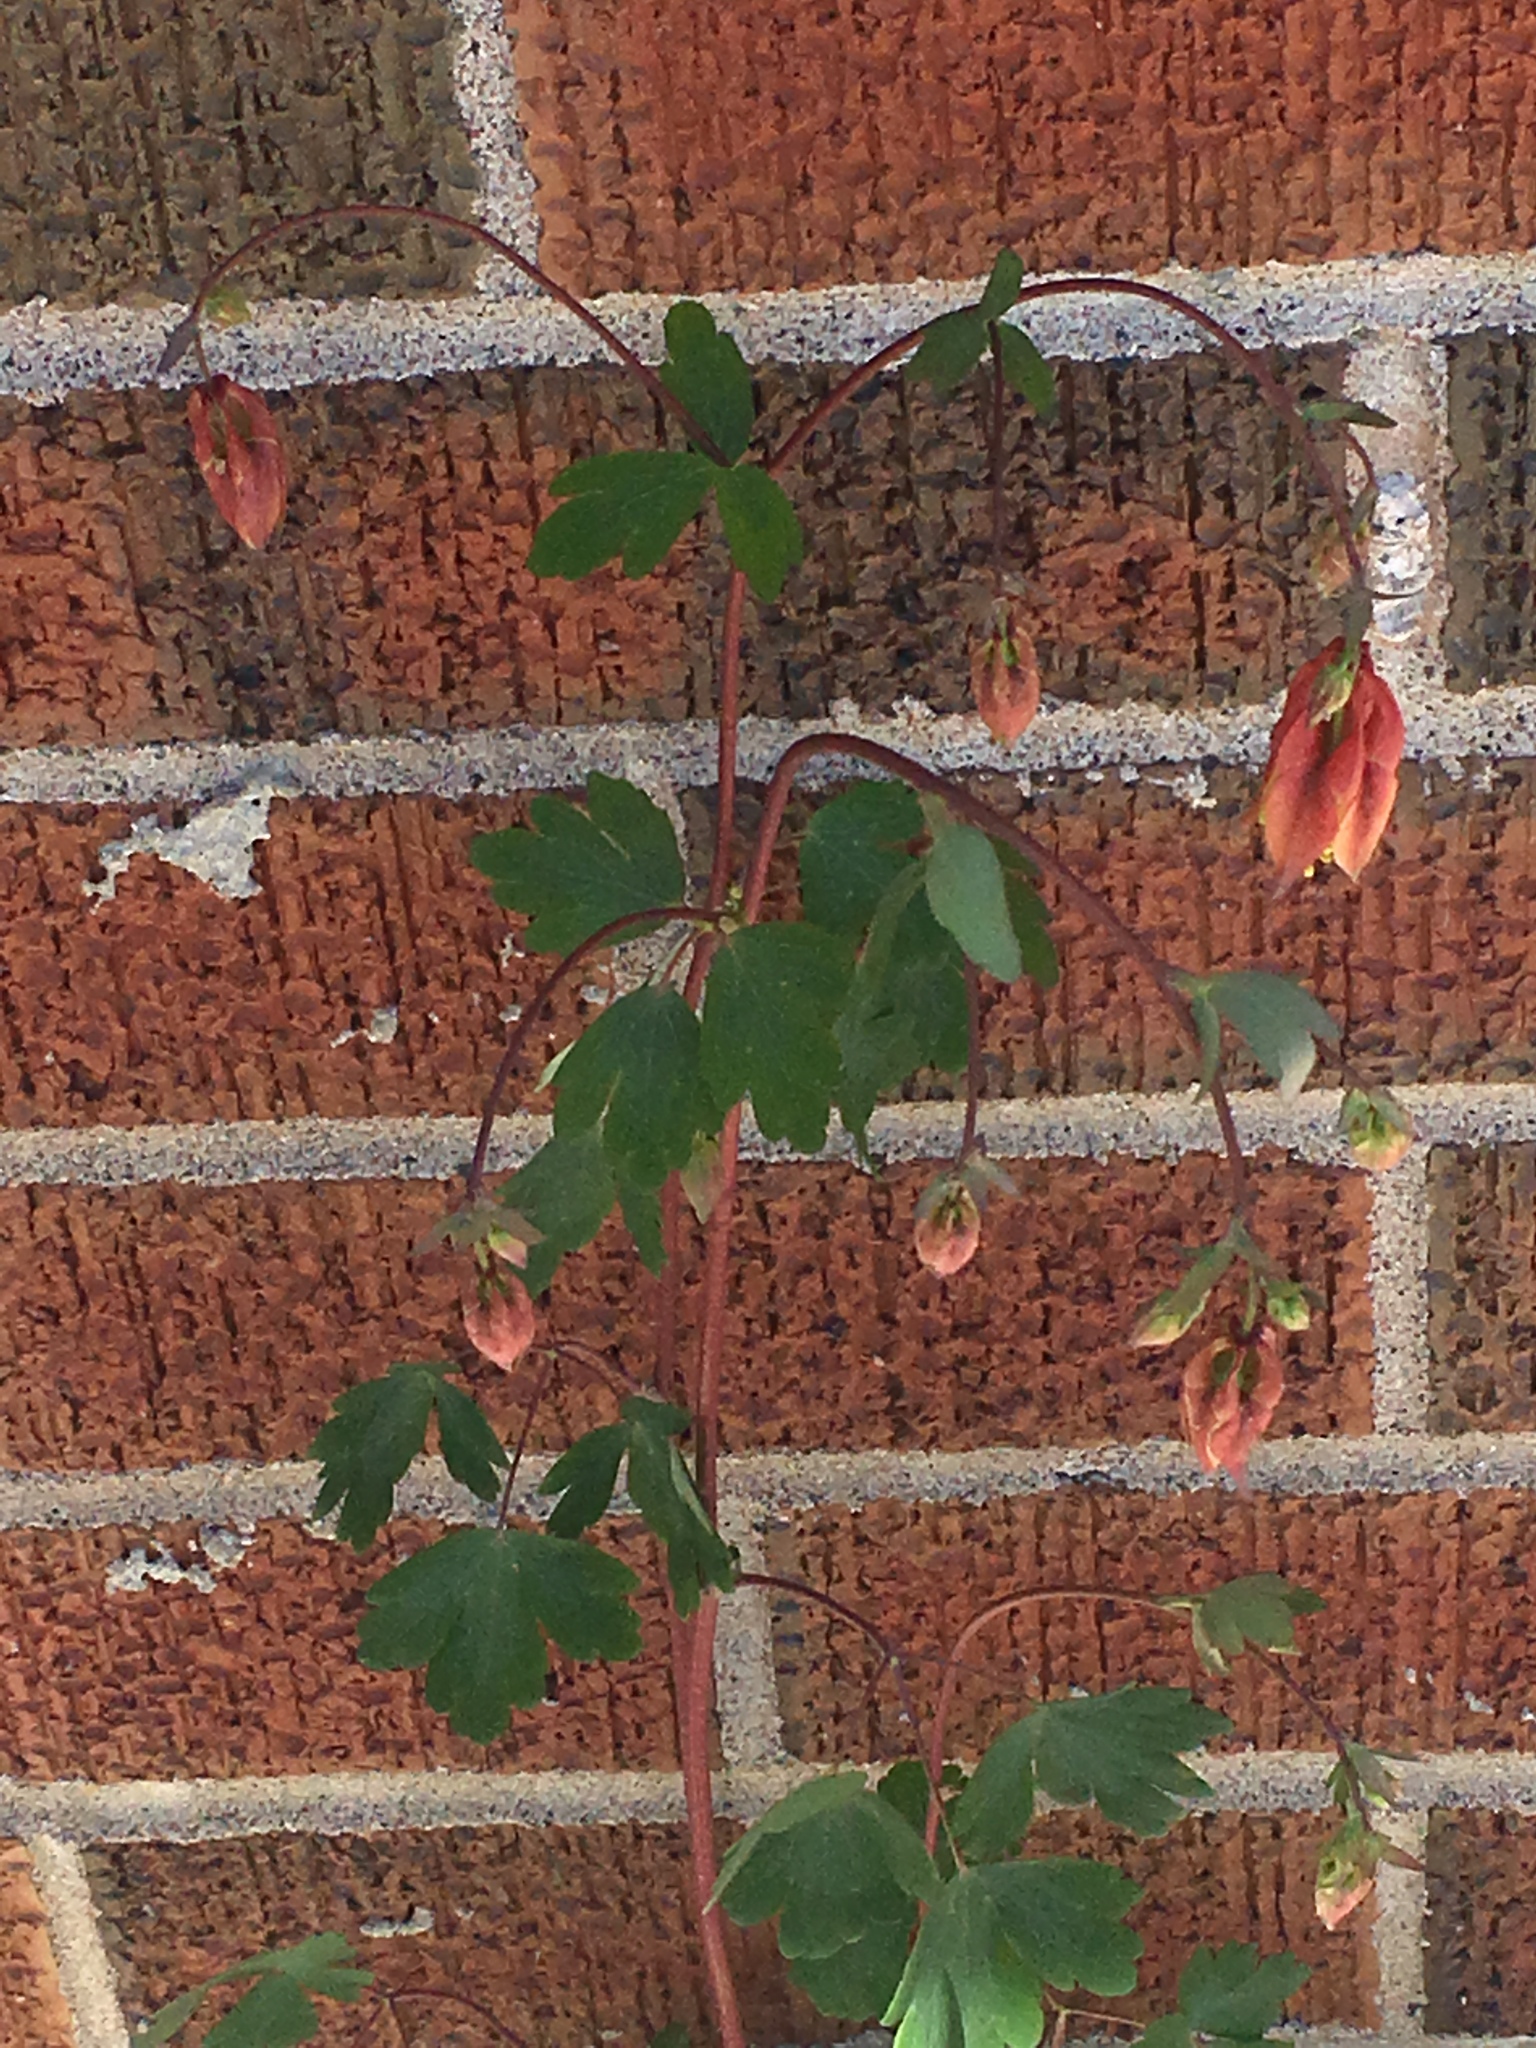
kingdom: Plantae
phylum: Tracheophyta
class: Magnoliopsida
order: Ranunculales
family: Ranunculaceae
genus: Aquilegia
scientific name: Aquilegia canadensis
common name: American columbine
